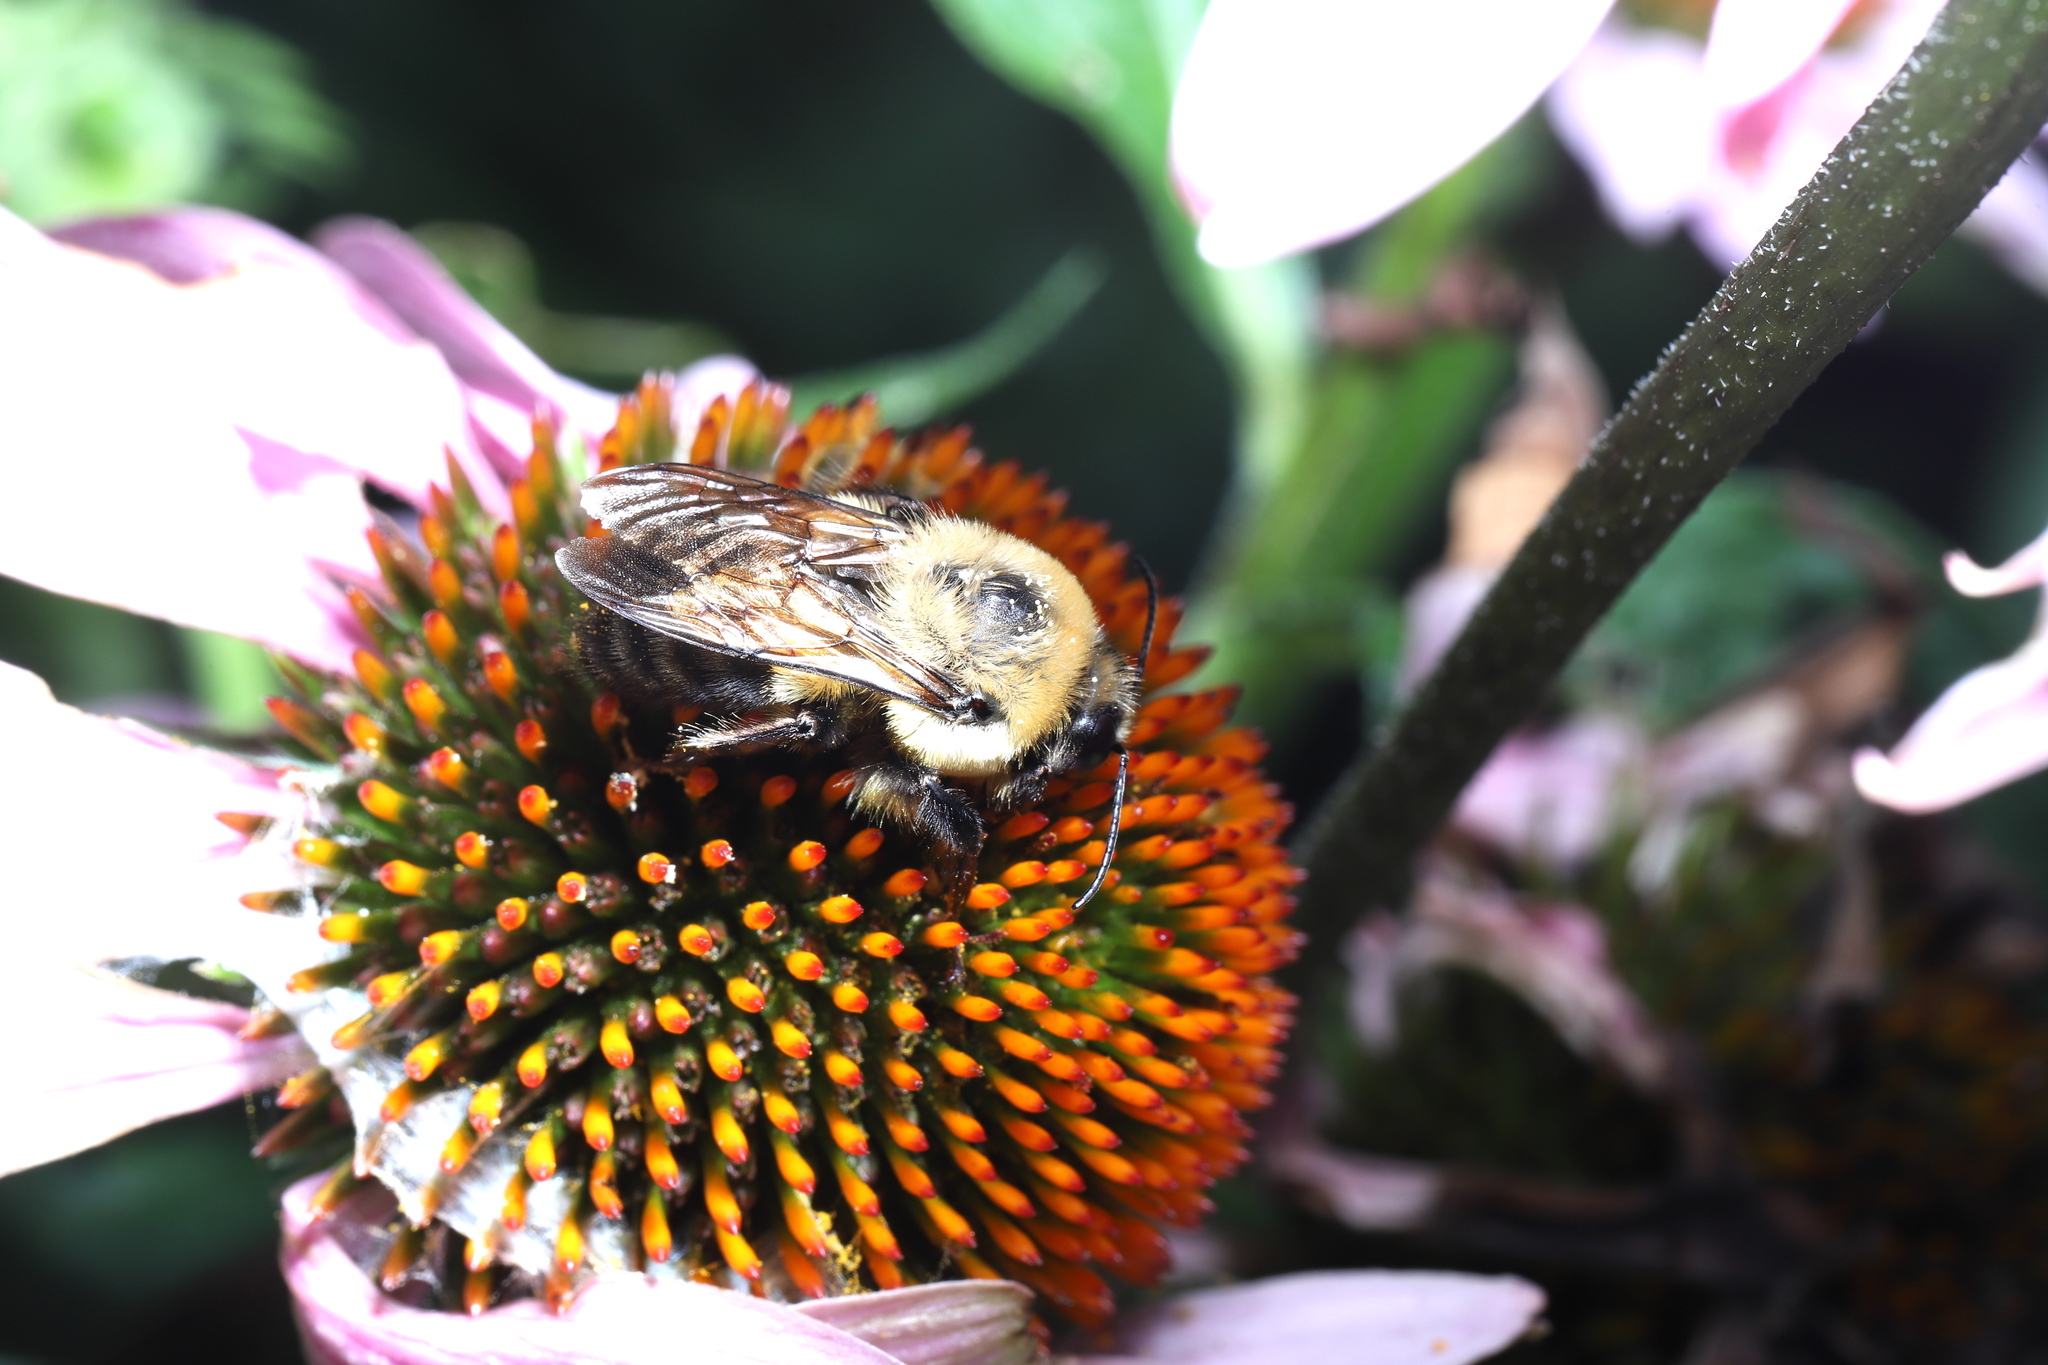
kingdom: Animalia
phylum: Arthropoda
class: Insecta
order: Hymenoptera
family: Apidae
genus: Bombus
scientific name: Bombus griseocollis
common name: Brown-belted bumble bee
